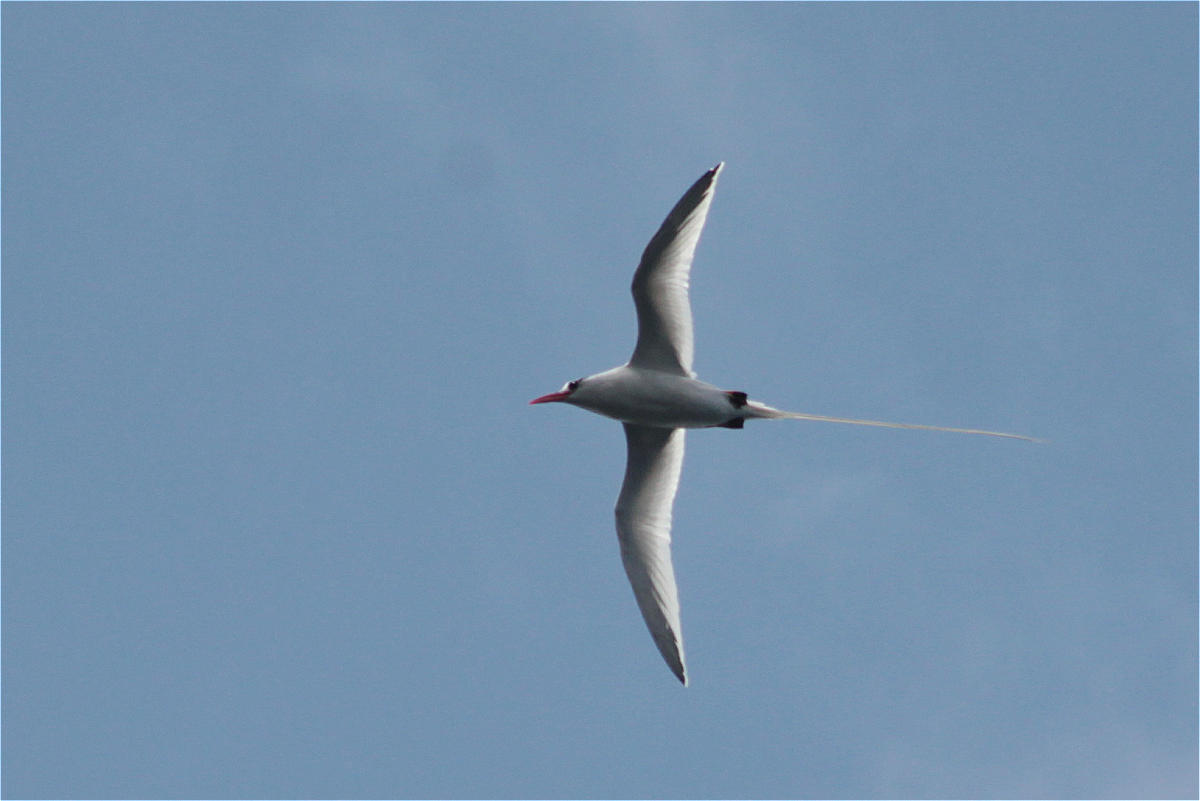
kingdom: Animalia
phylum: Chordata
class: Aves
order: Phaethontiformes
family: Phaethontidae
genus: Phaethon
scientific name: Phaethon aethereus
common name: Red-billed tropicbird
